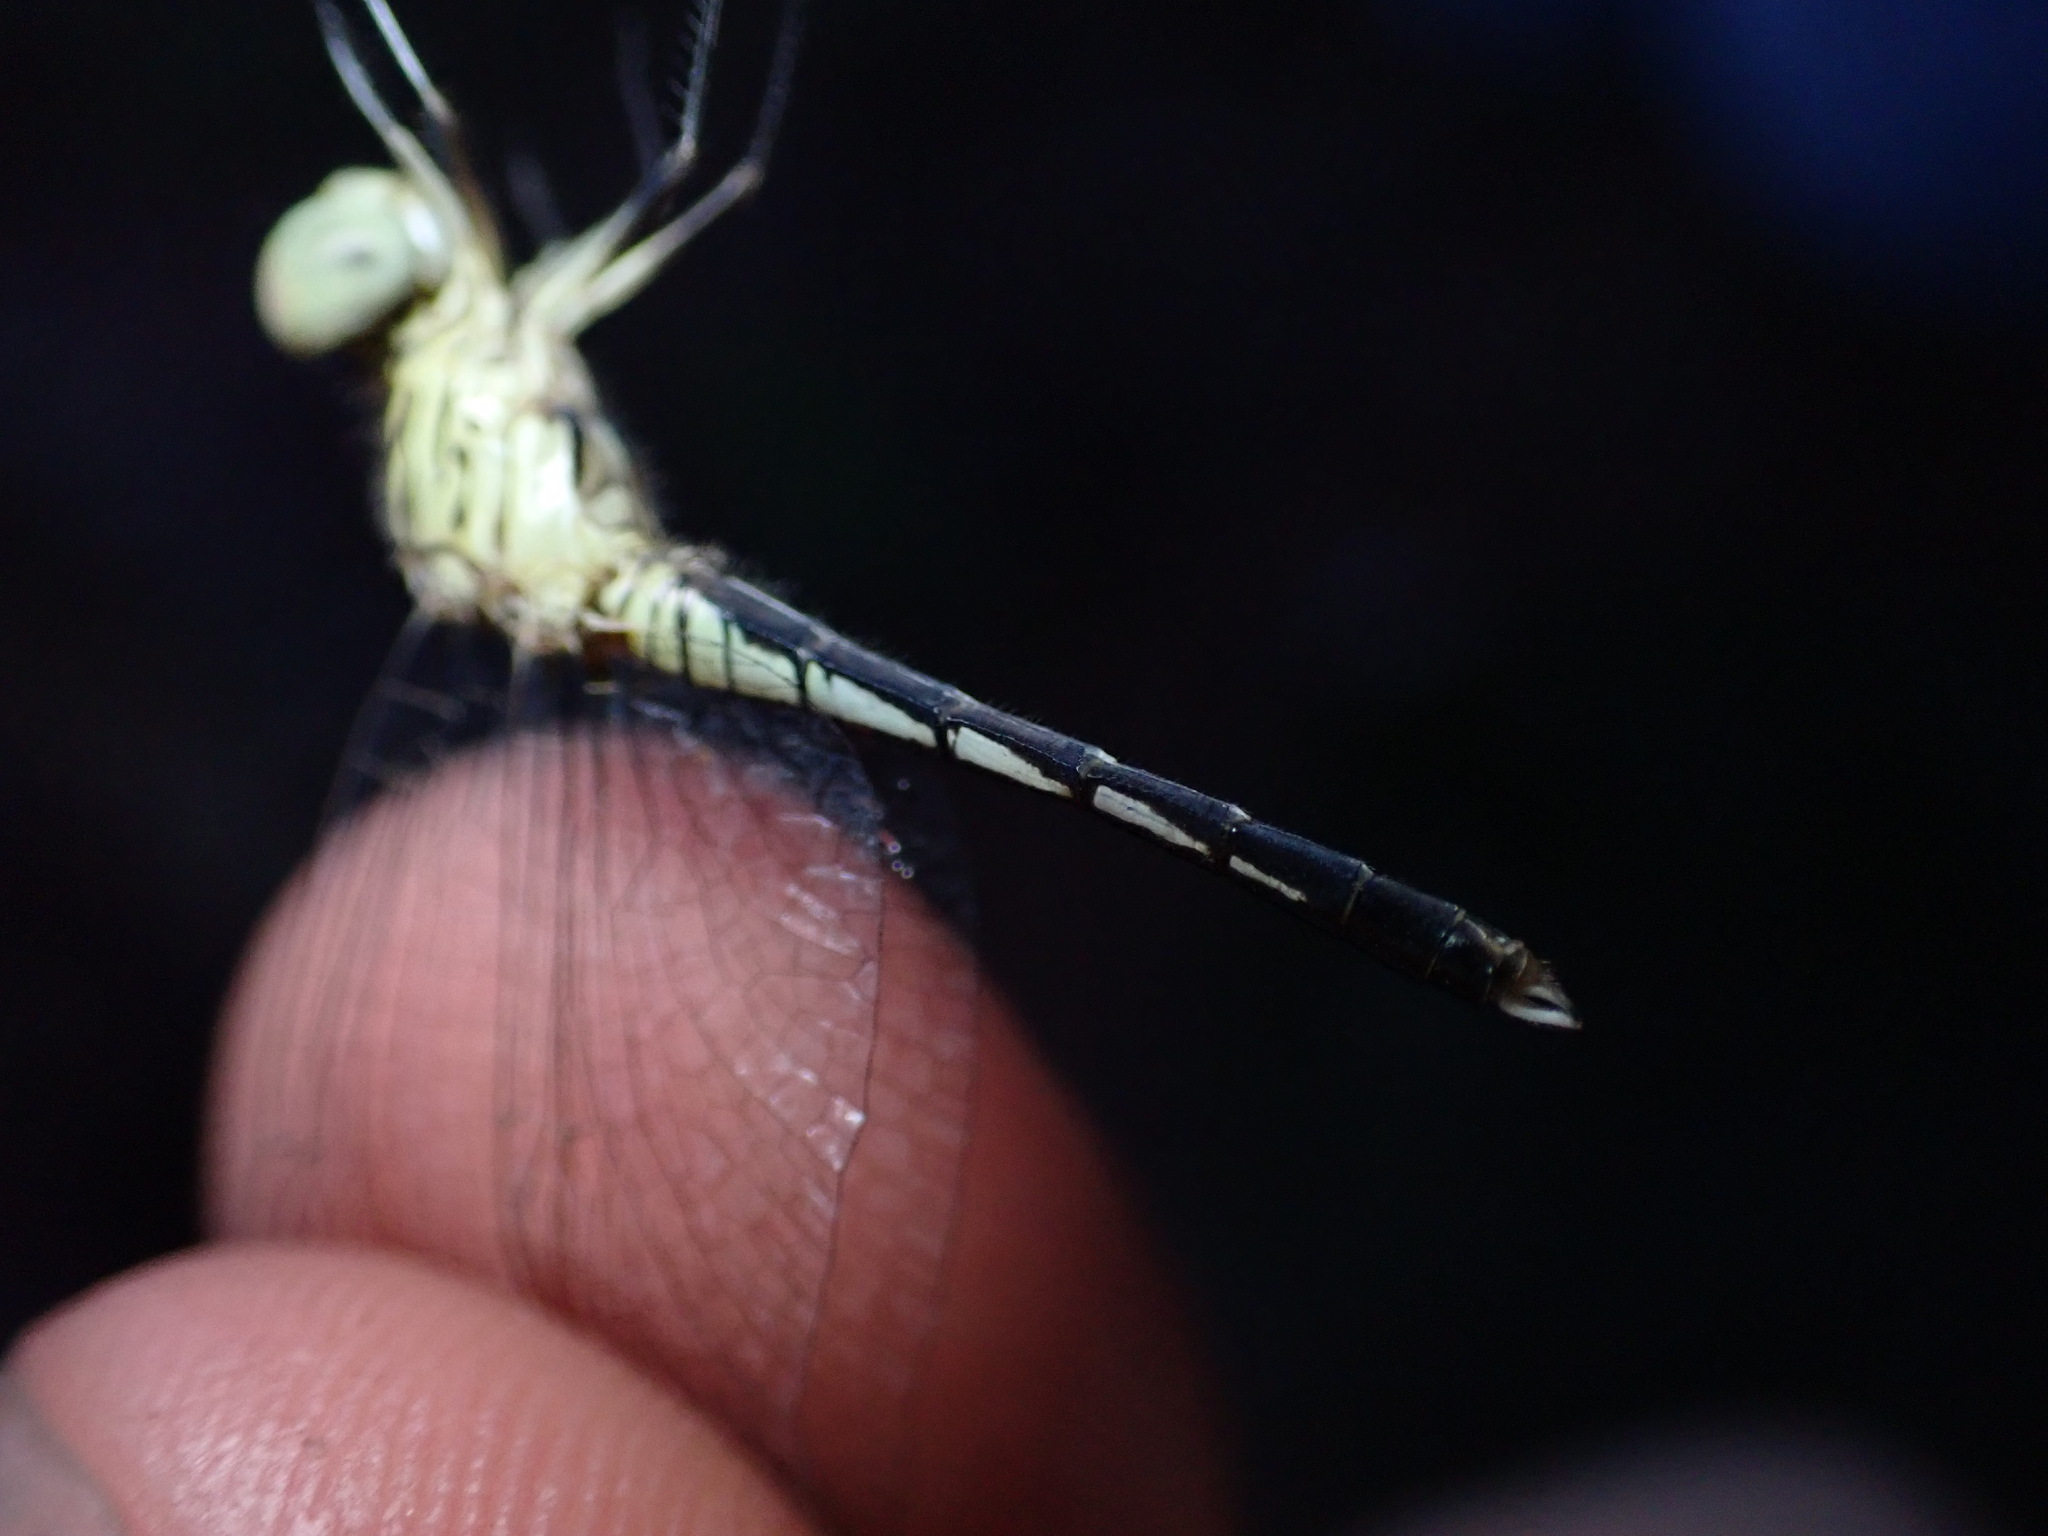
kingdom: Animalia
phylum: Arthropoda
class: Insecta
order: Odonata
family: Libellulidae
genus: Diplacodes
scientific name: Diplacodes nebulosa
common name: Black-tipped percher
